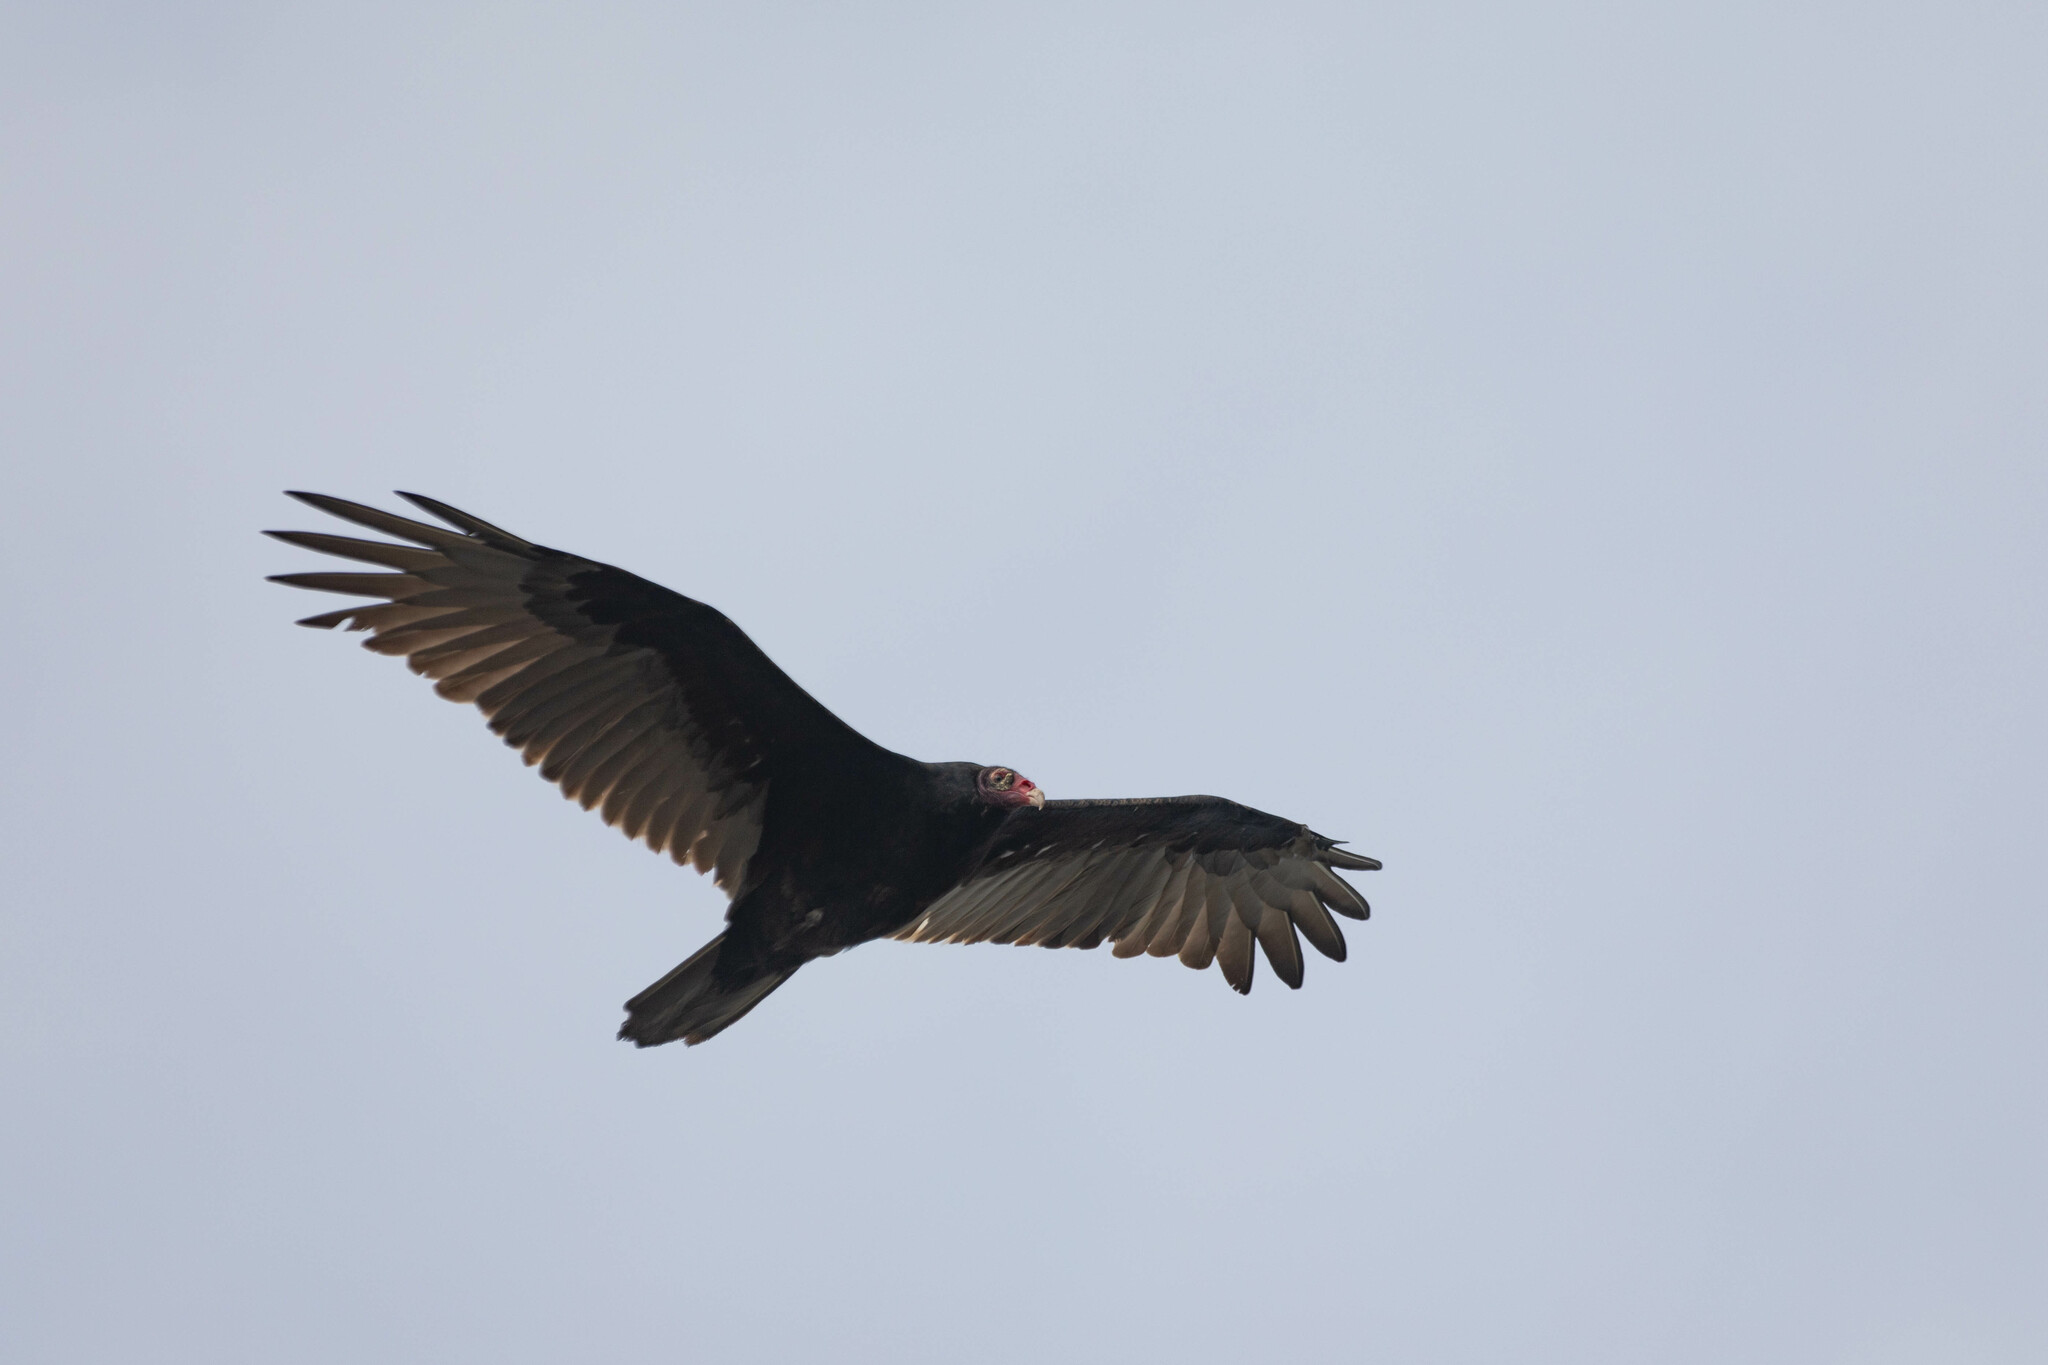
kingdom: Animalia
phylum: Chordata
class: Aves
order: Accipitriformes
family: Cathartidae
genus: Cathartes
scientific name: Cathartes aura
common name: Turkey vulture
